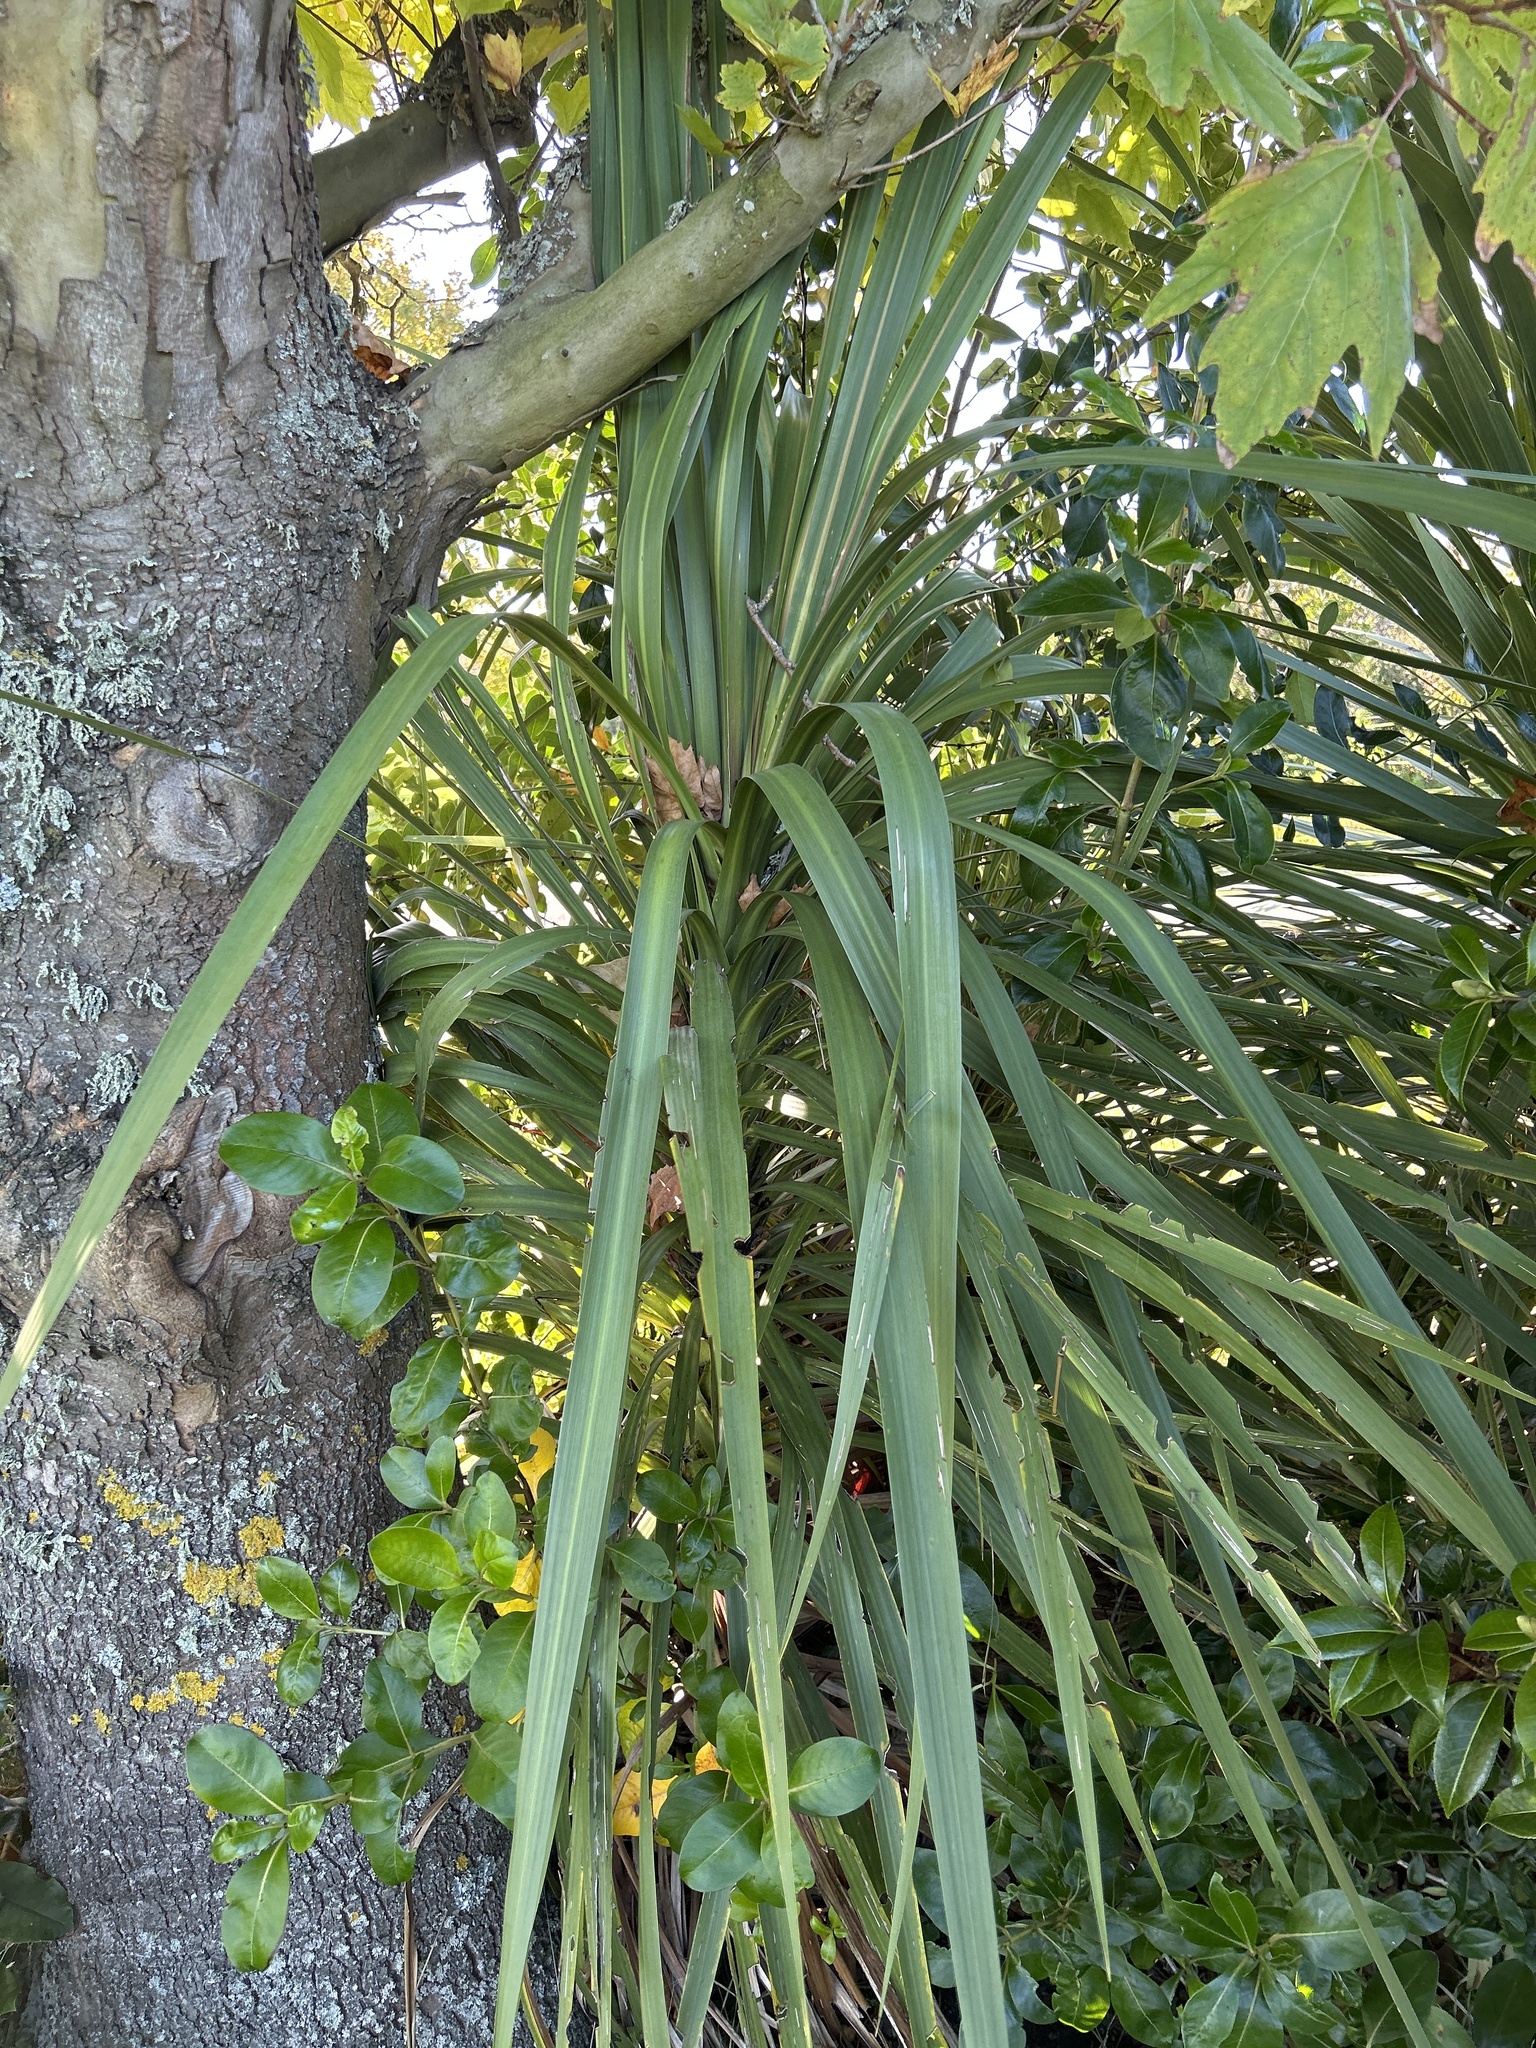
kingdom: Plantae
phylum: Tracheophyta
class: Liliopsida
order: Asparagales
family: Asparagaceae
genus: Cordyline
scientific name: Cordyline australis
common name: Cabbage-palm
